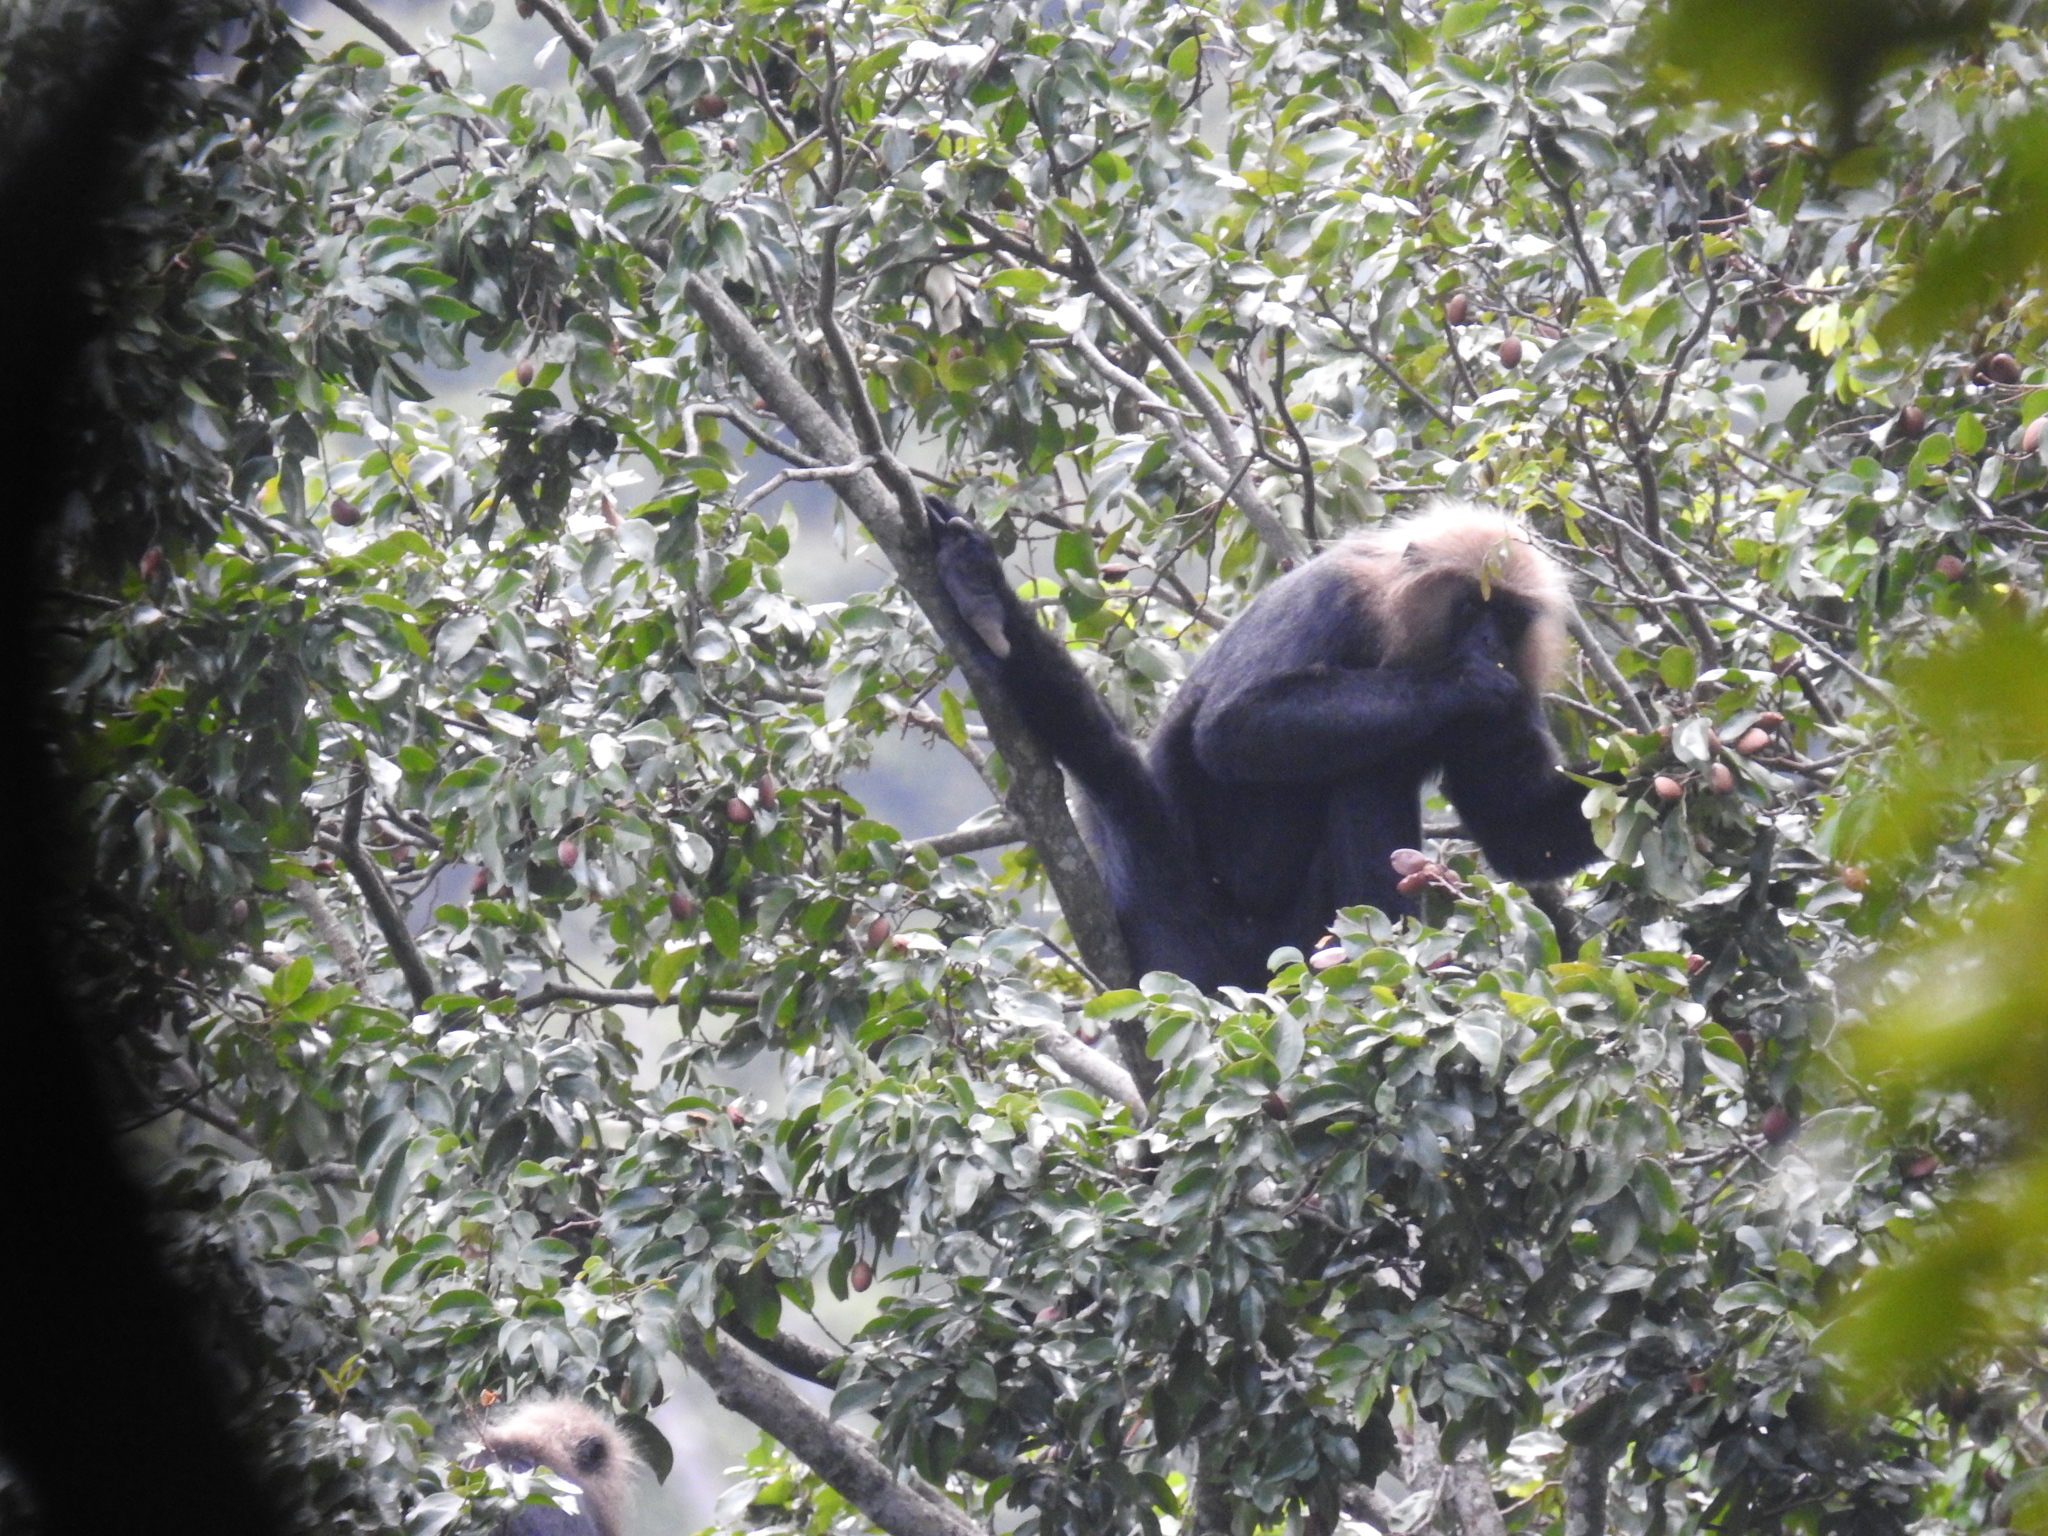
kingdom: Animalia
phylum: Chordata
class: Mammalia
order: Primates
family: Cercopithecidae
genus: Semnopithecus
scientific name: Semnopithecus johnii
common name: Nilgiri langur
